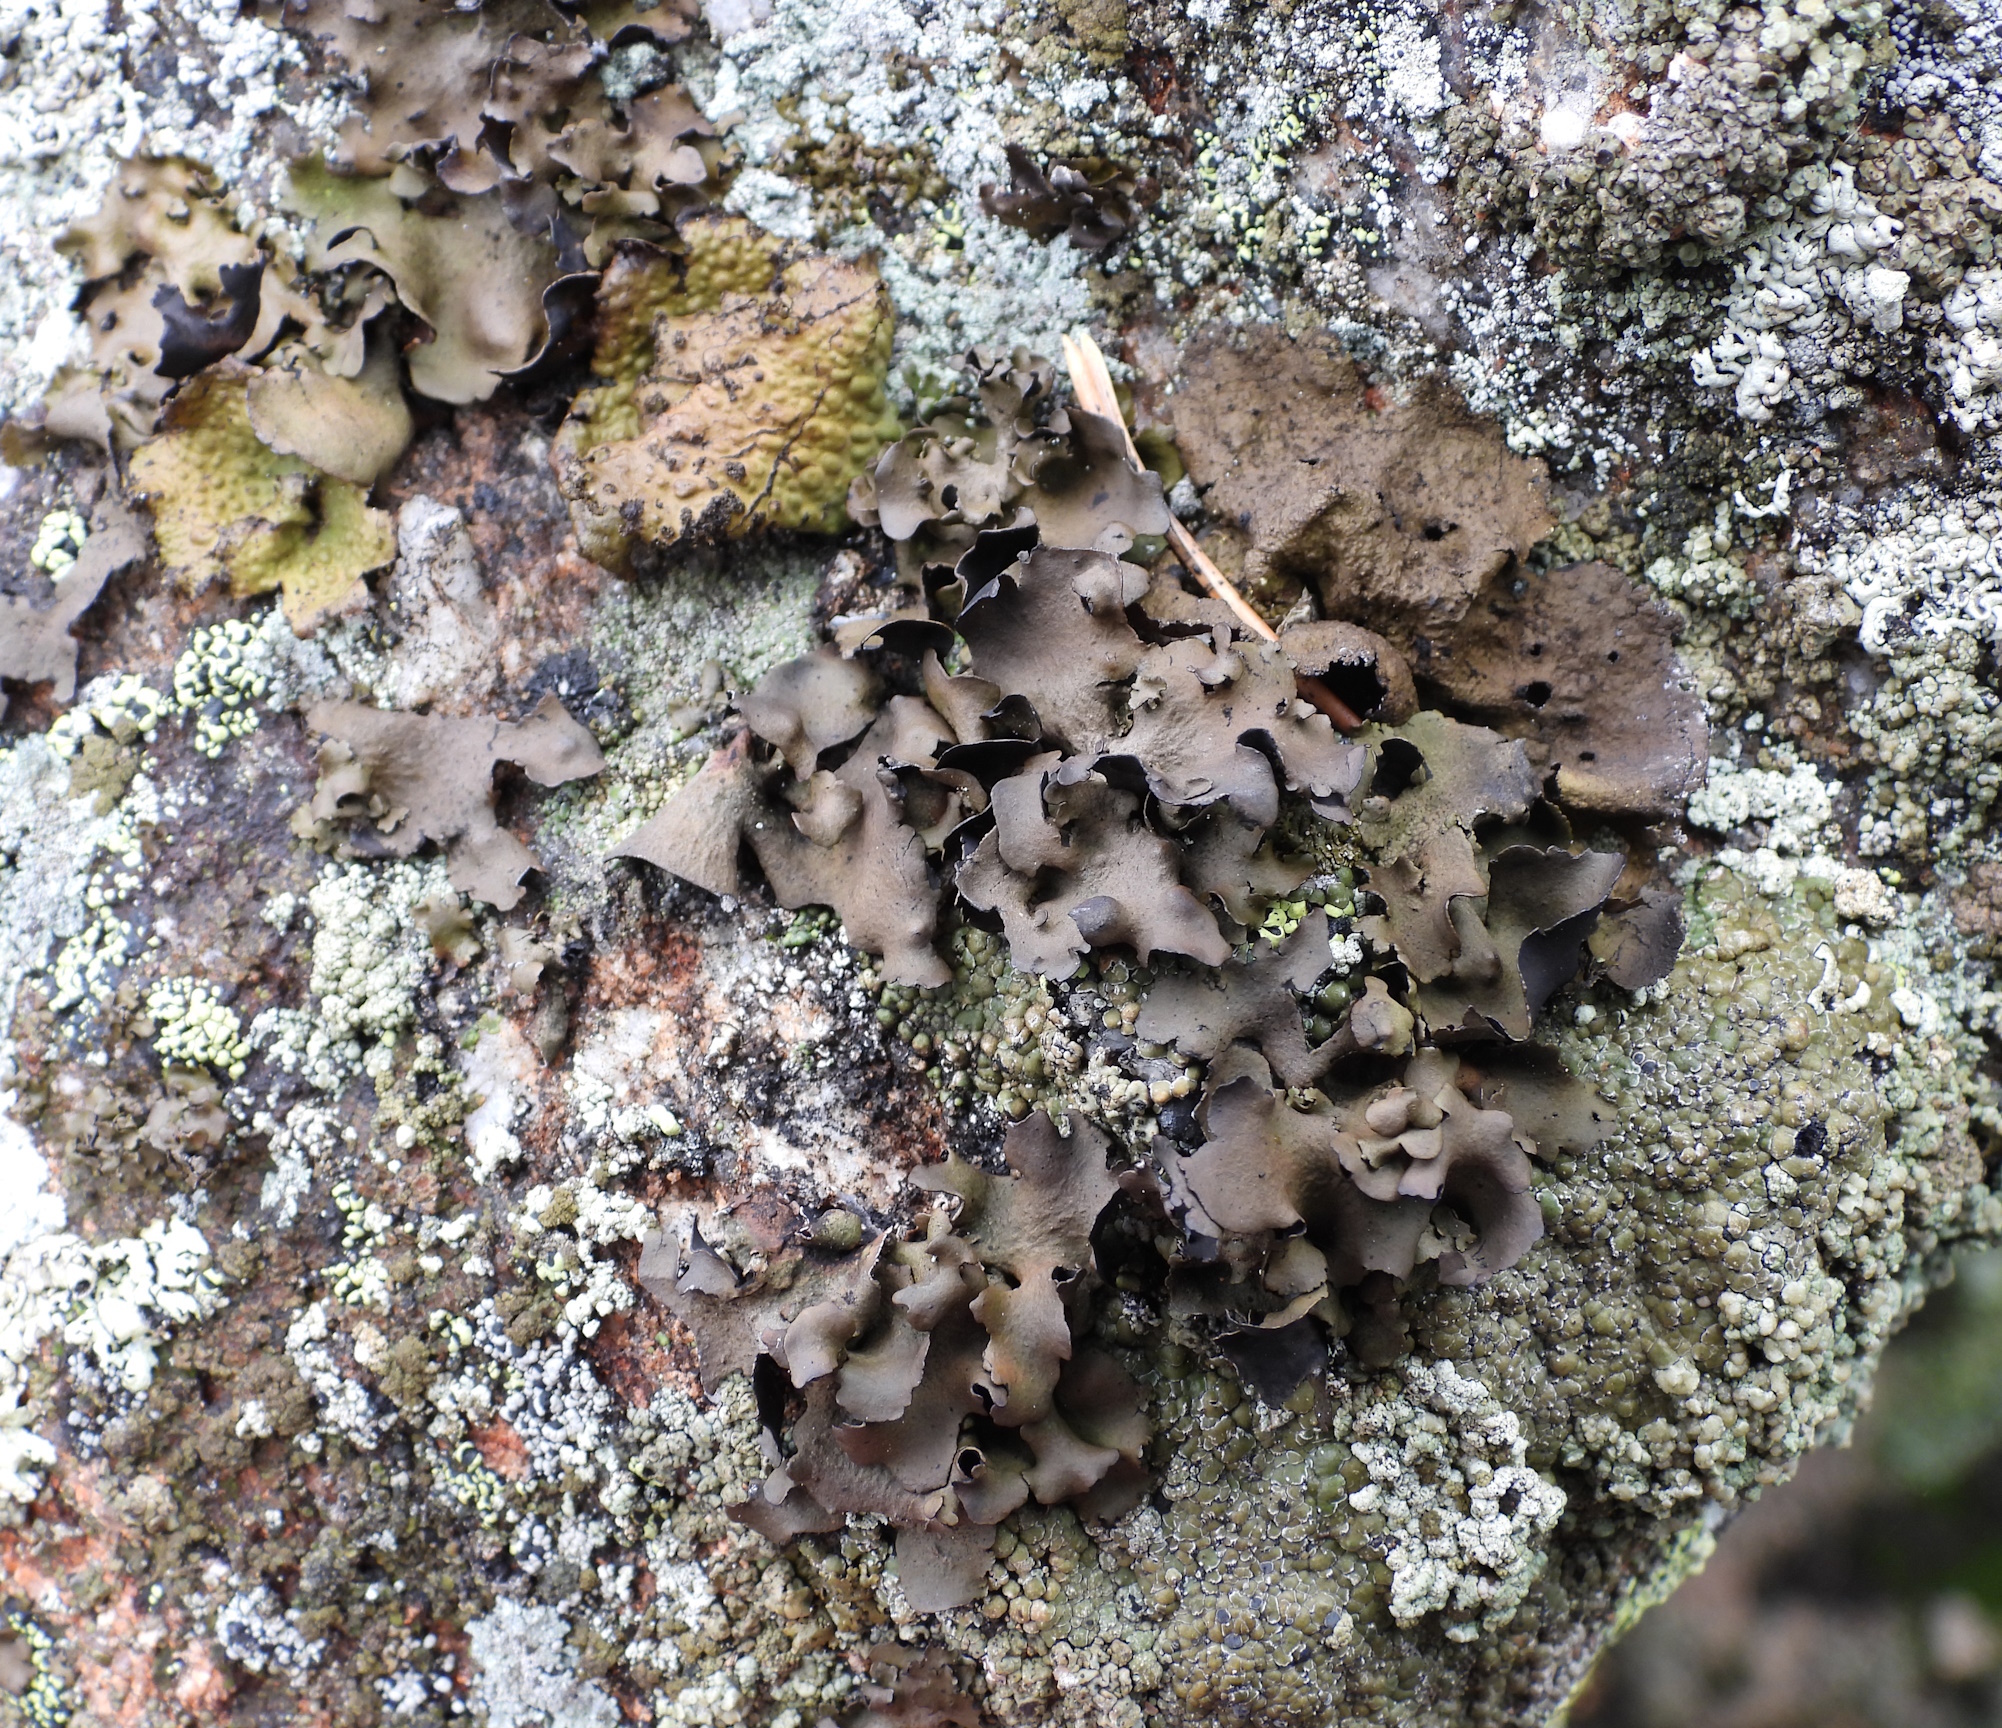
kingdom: Fungi
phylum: Ascomycota
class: Lecanoromycetes
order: Umbilicariales
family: Umbilicariaceae
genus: Umbilicaria
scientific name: Umbilicaria polyphylla
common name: Petalled rocktripe lichen
